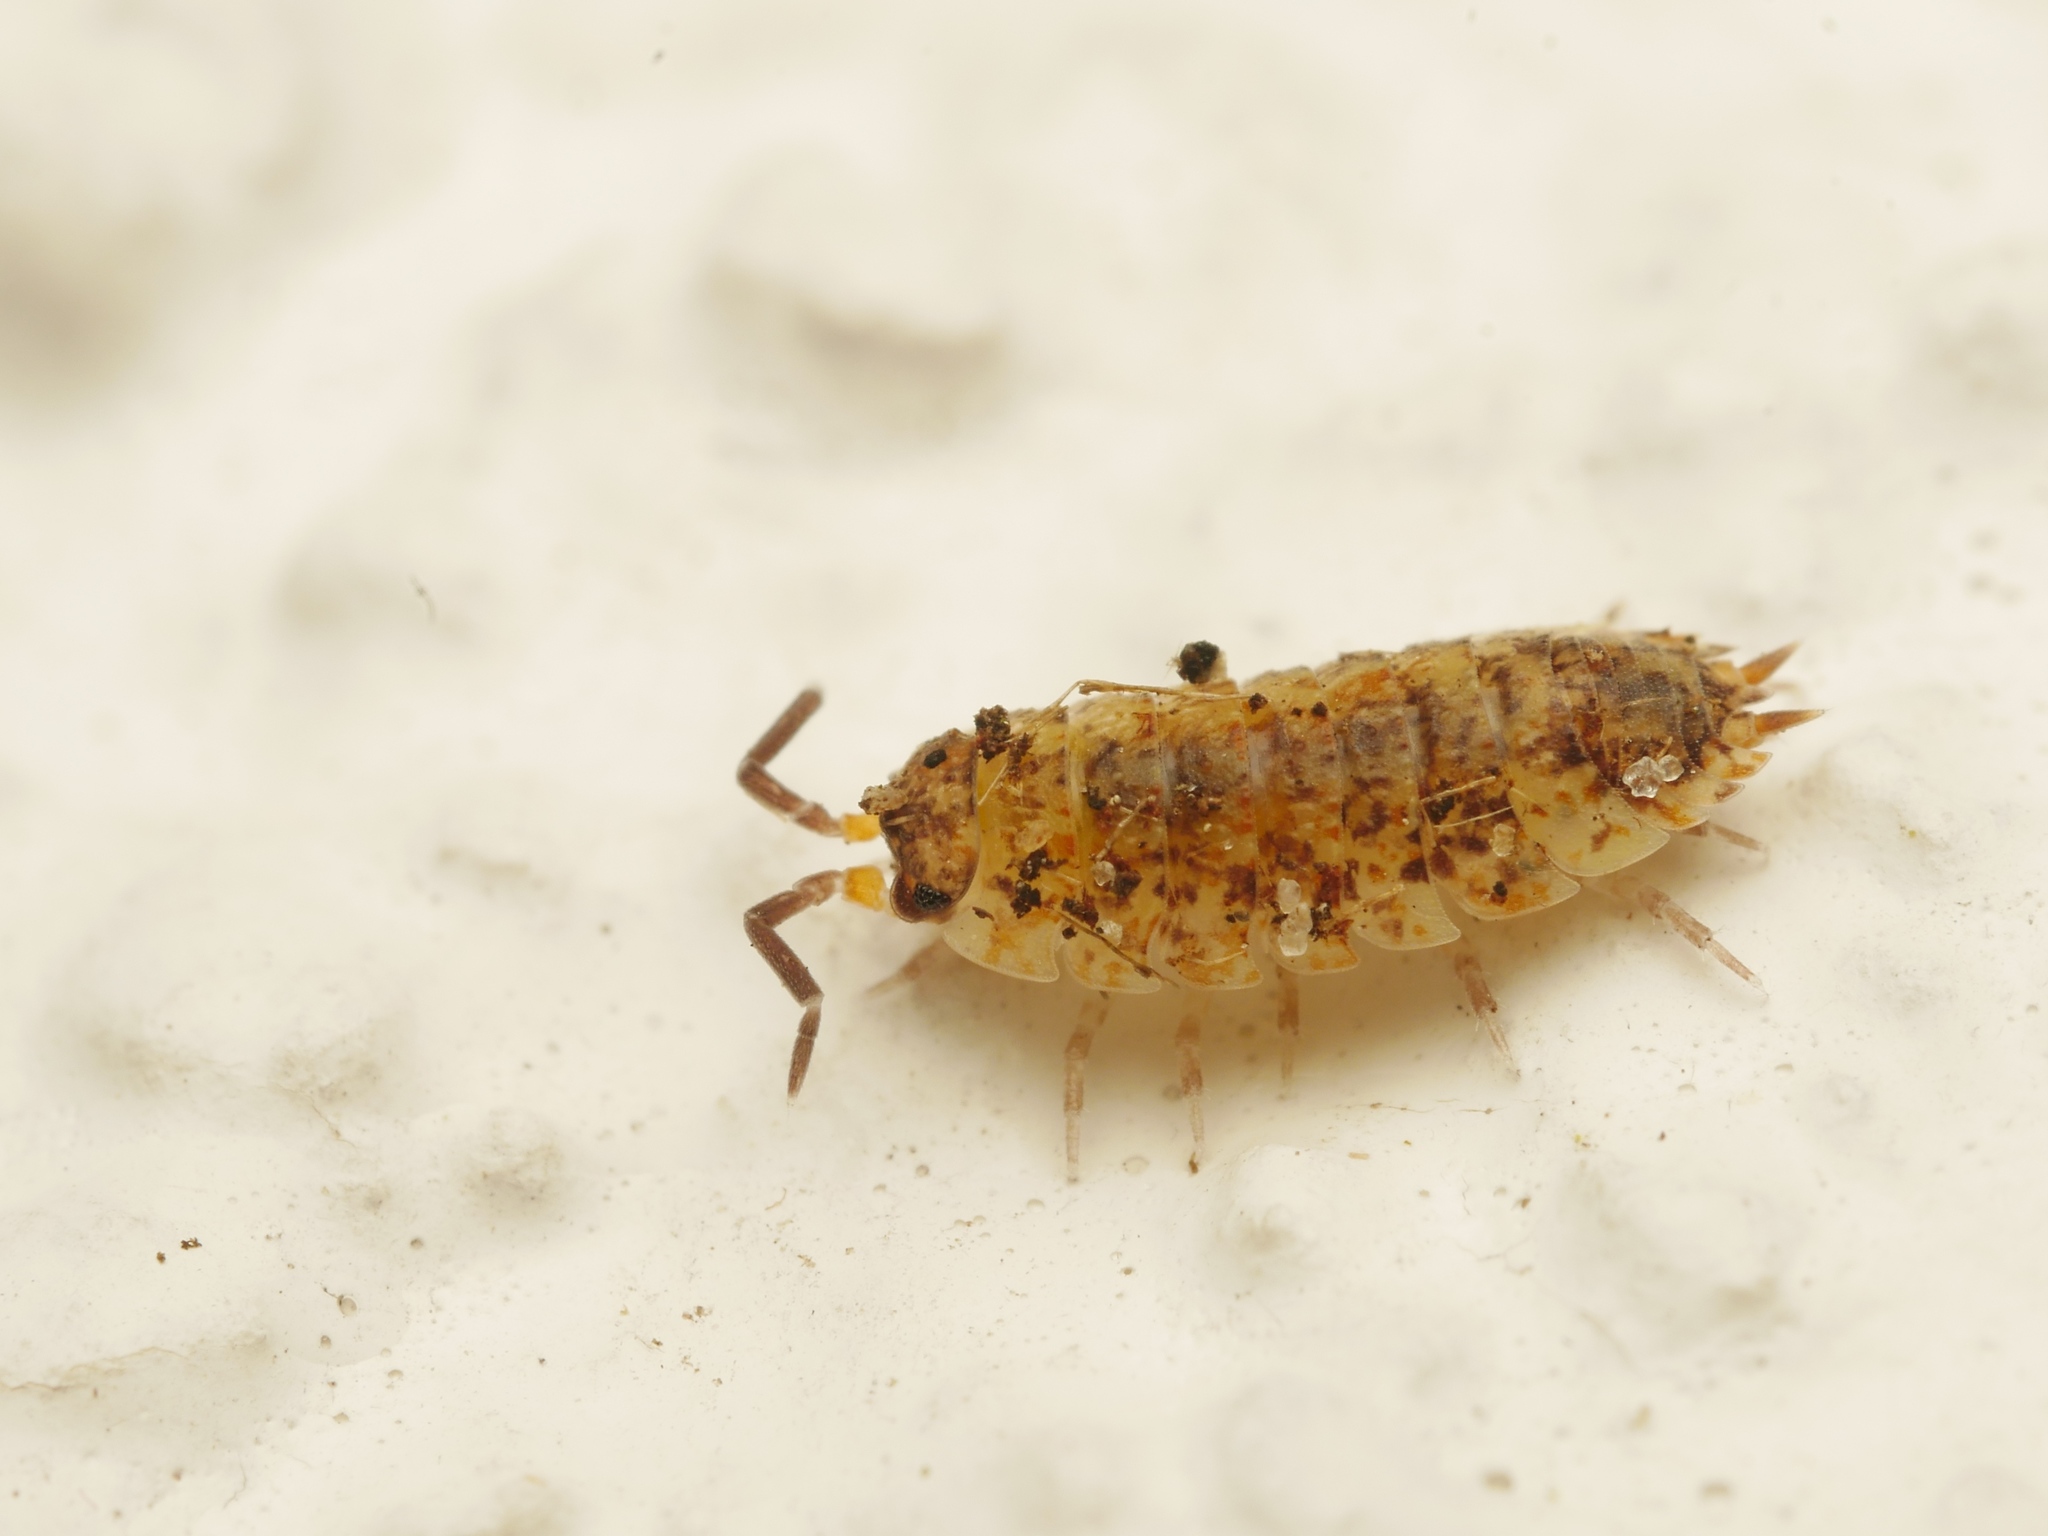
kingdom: Animalia
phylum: Arthropoda
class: Malacostraca
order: Isopoda
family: Porcellionidae
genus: Porcellio
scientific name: Porcellio scaber
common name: Common rough woodlouse
